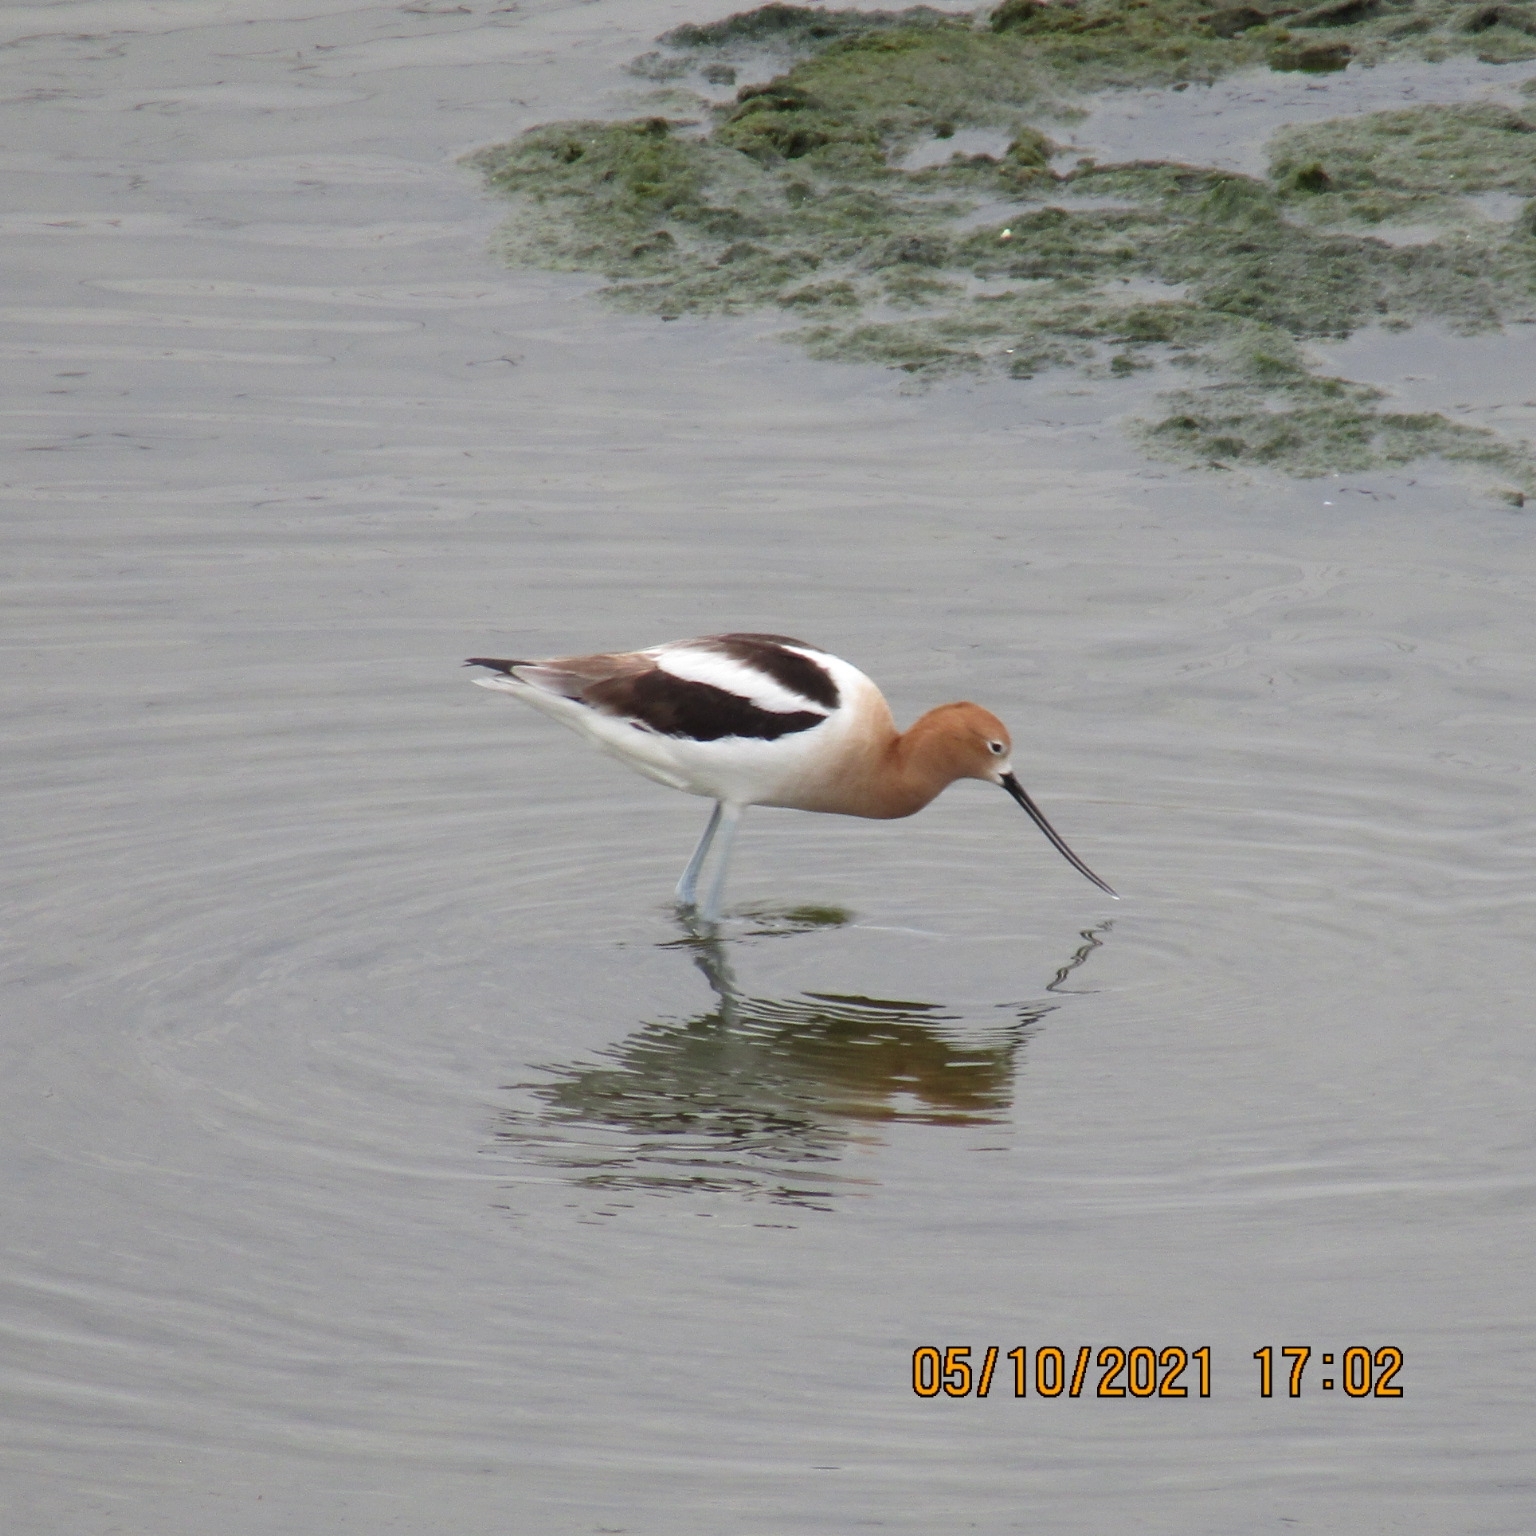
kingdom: Animalia
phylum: Chordata
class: Aves
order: Charadriiformes
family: Recurvirostridae
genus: Recurvirostra
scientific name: Recurvirostra americana
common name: American avocet
